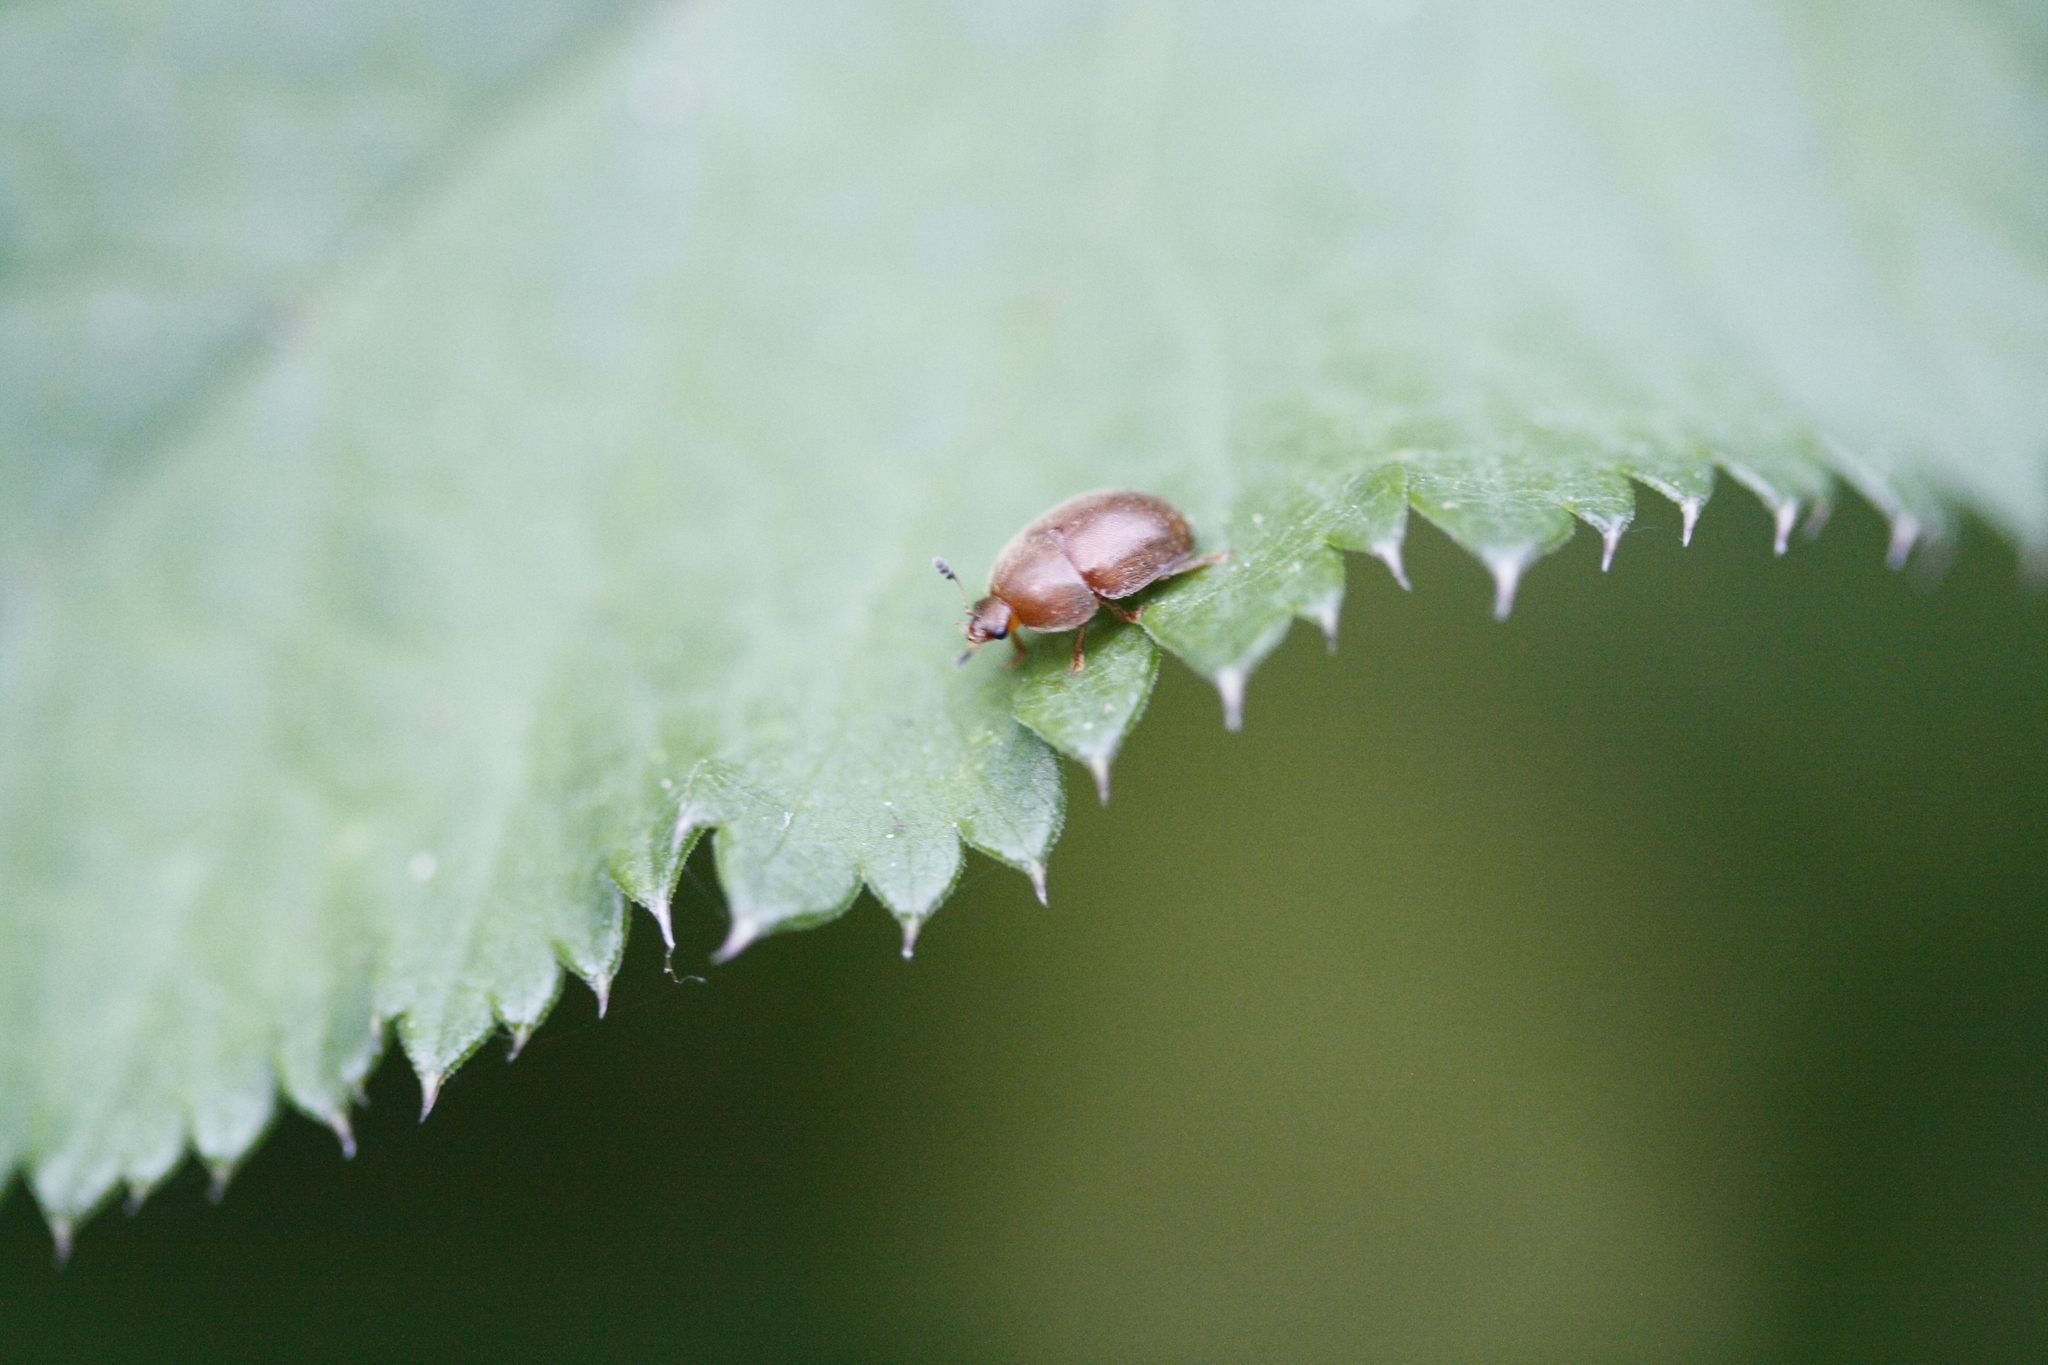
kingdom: Animalia
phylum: Arthropoda
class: Insecta
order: Coleoptera
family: Nitidulidae
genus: Cychramus
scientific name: Cychramus luteus
